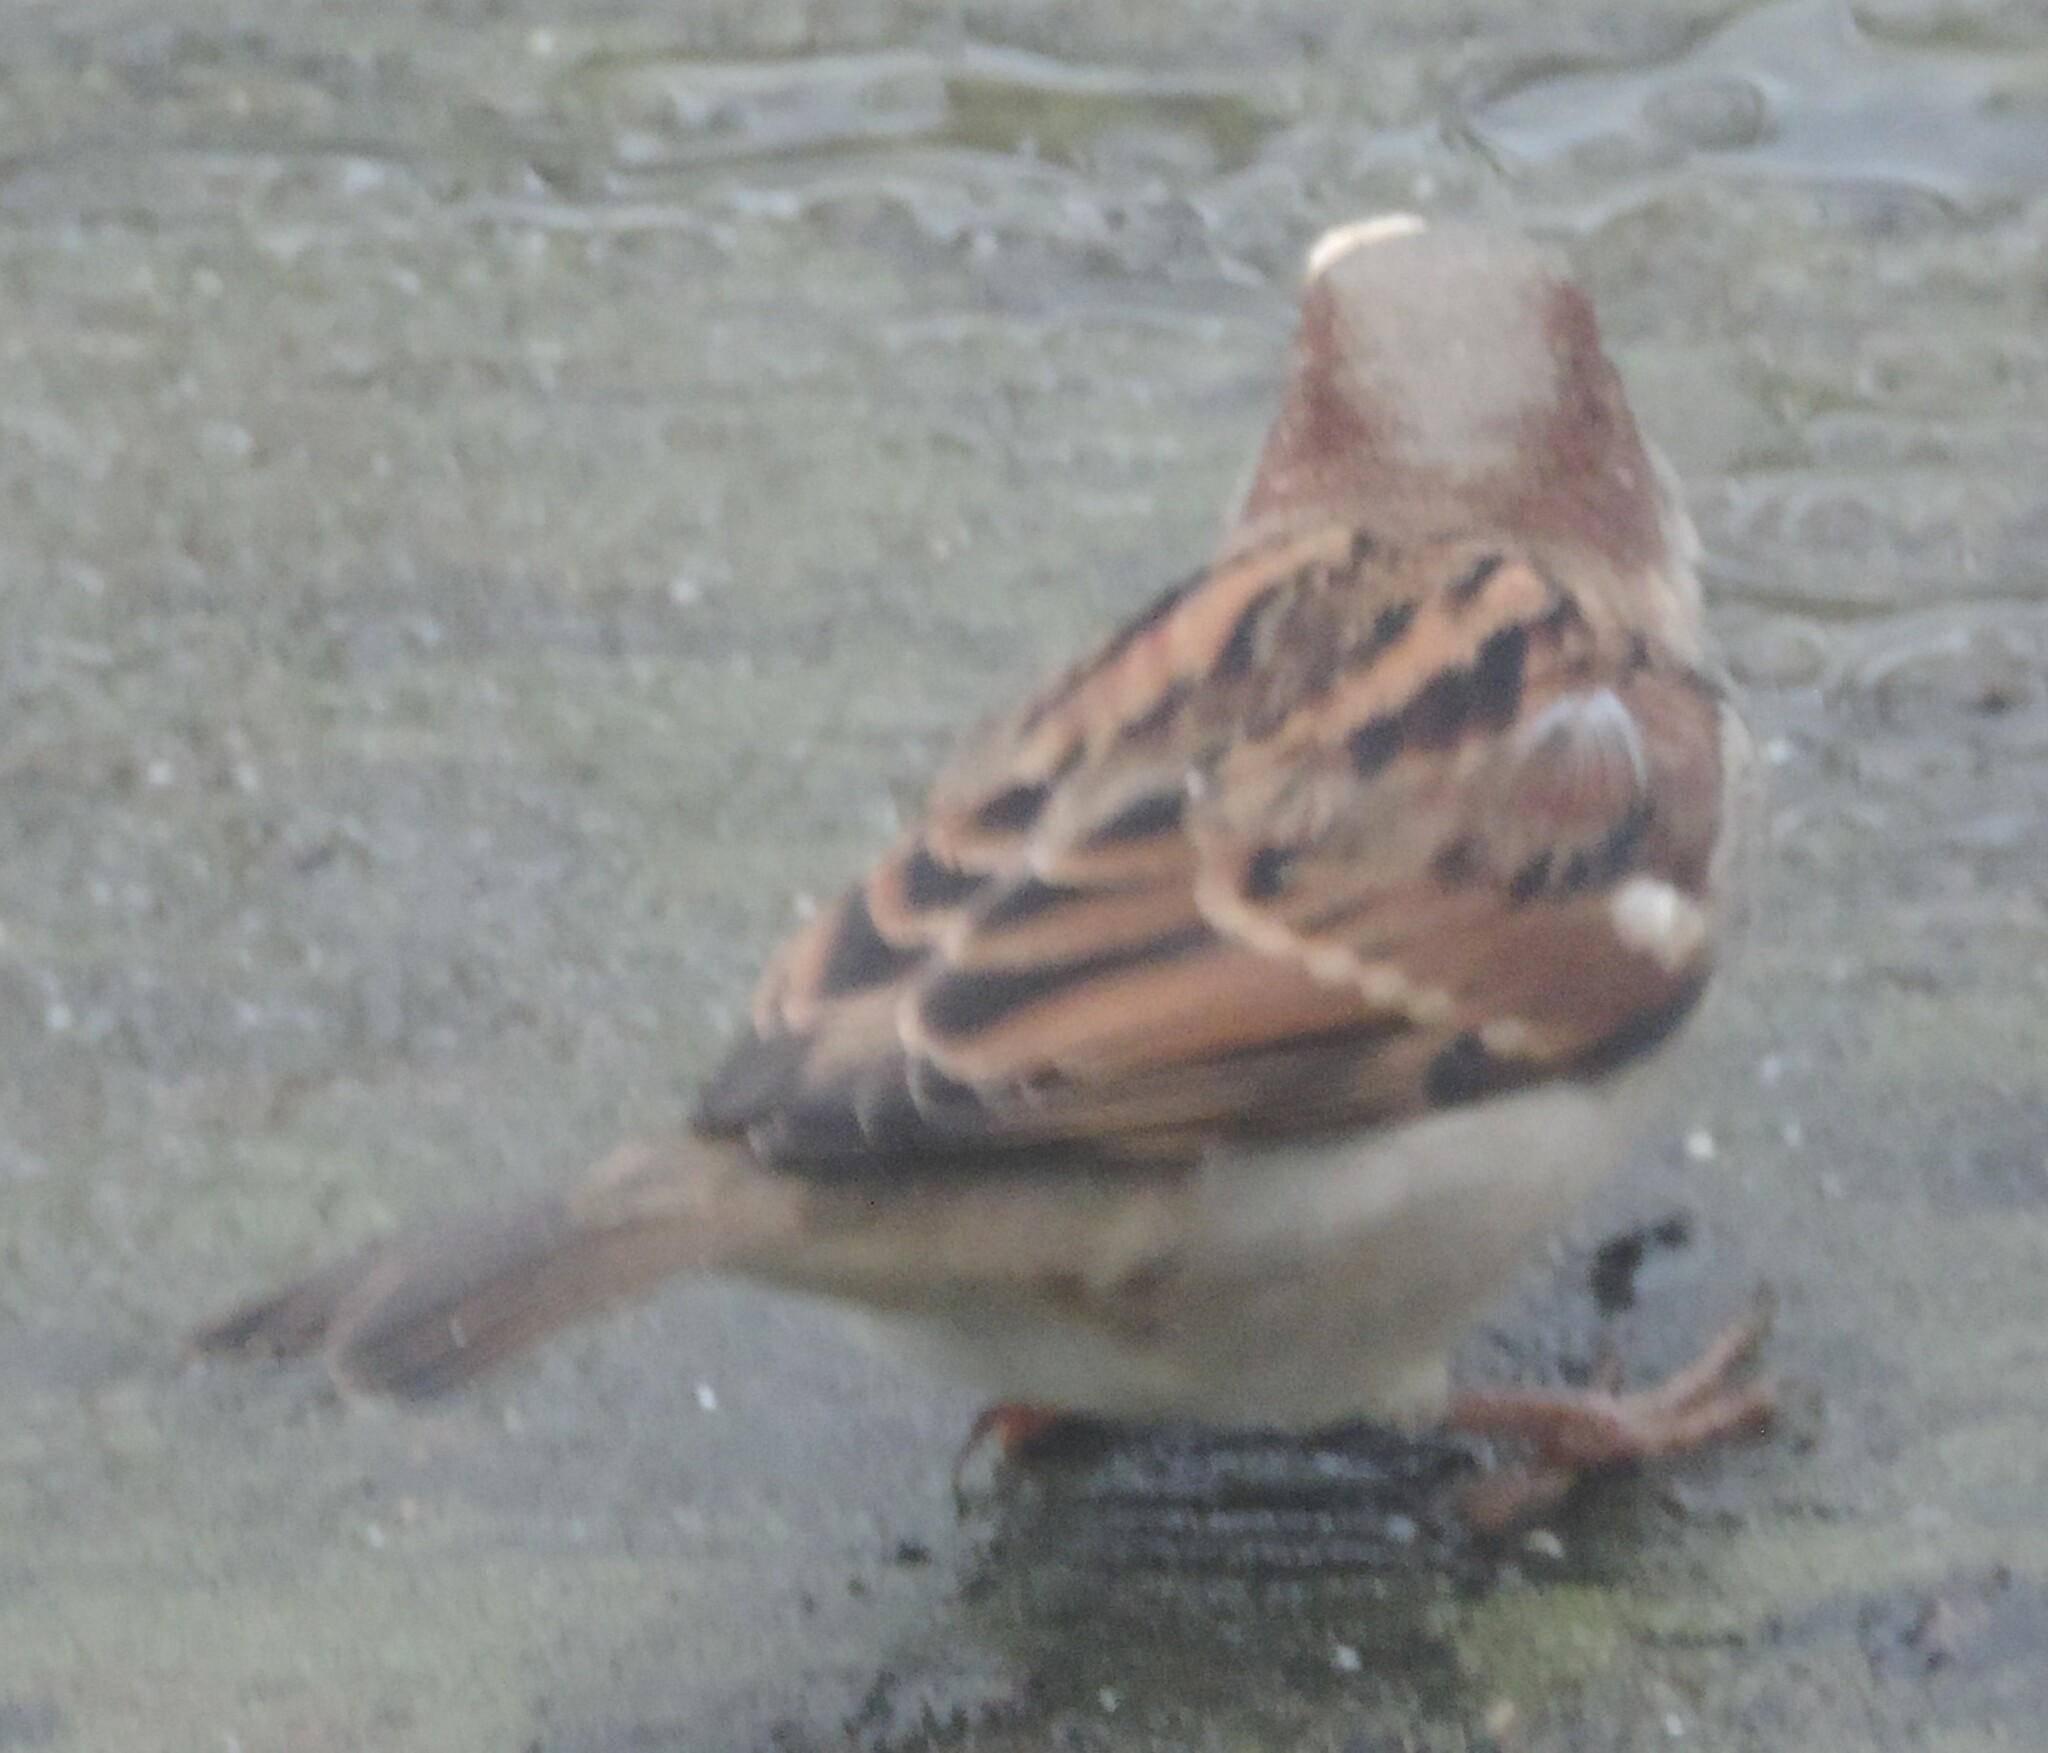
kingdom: Animalia
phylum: Chordata
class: Aves
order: Passeriformes
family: Passeridae
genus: Passer
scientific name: Passer domesticus
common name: House sparrow
